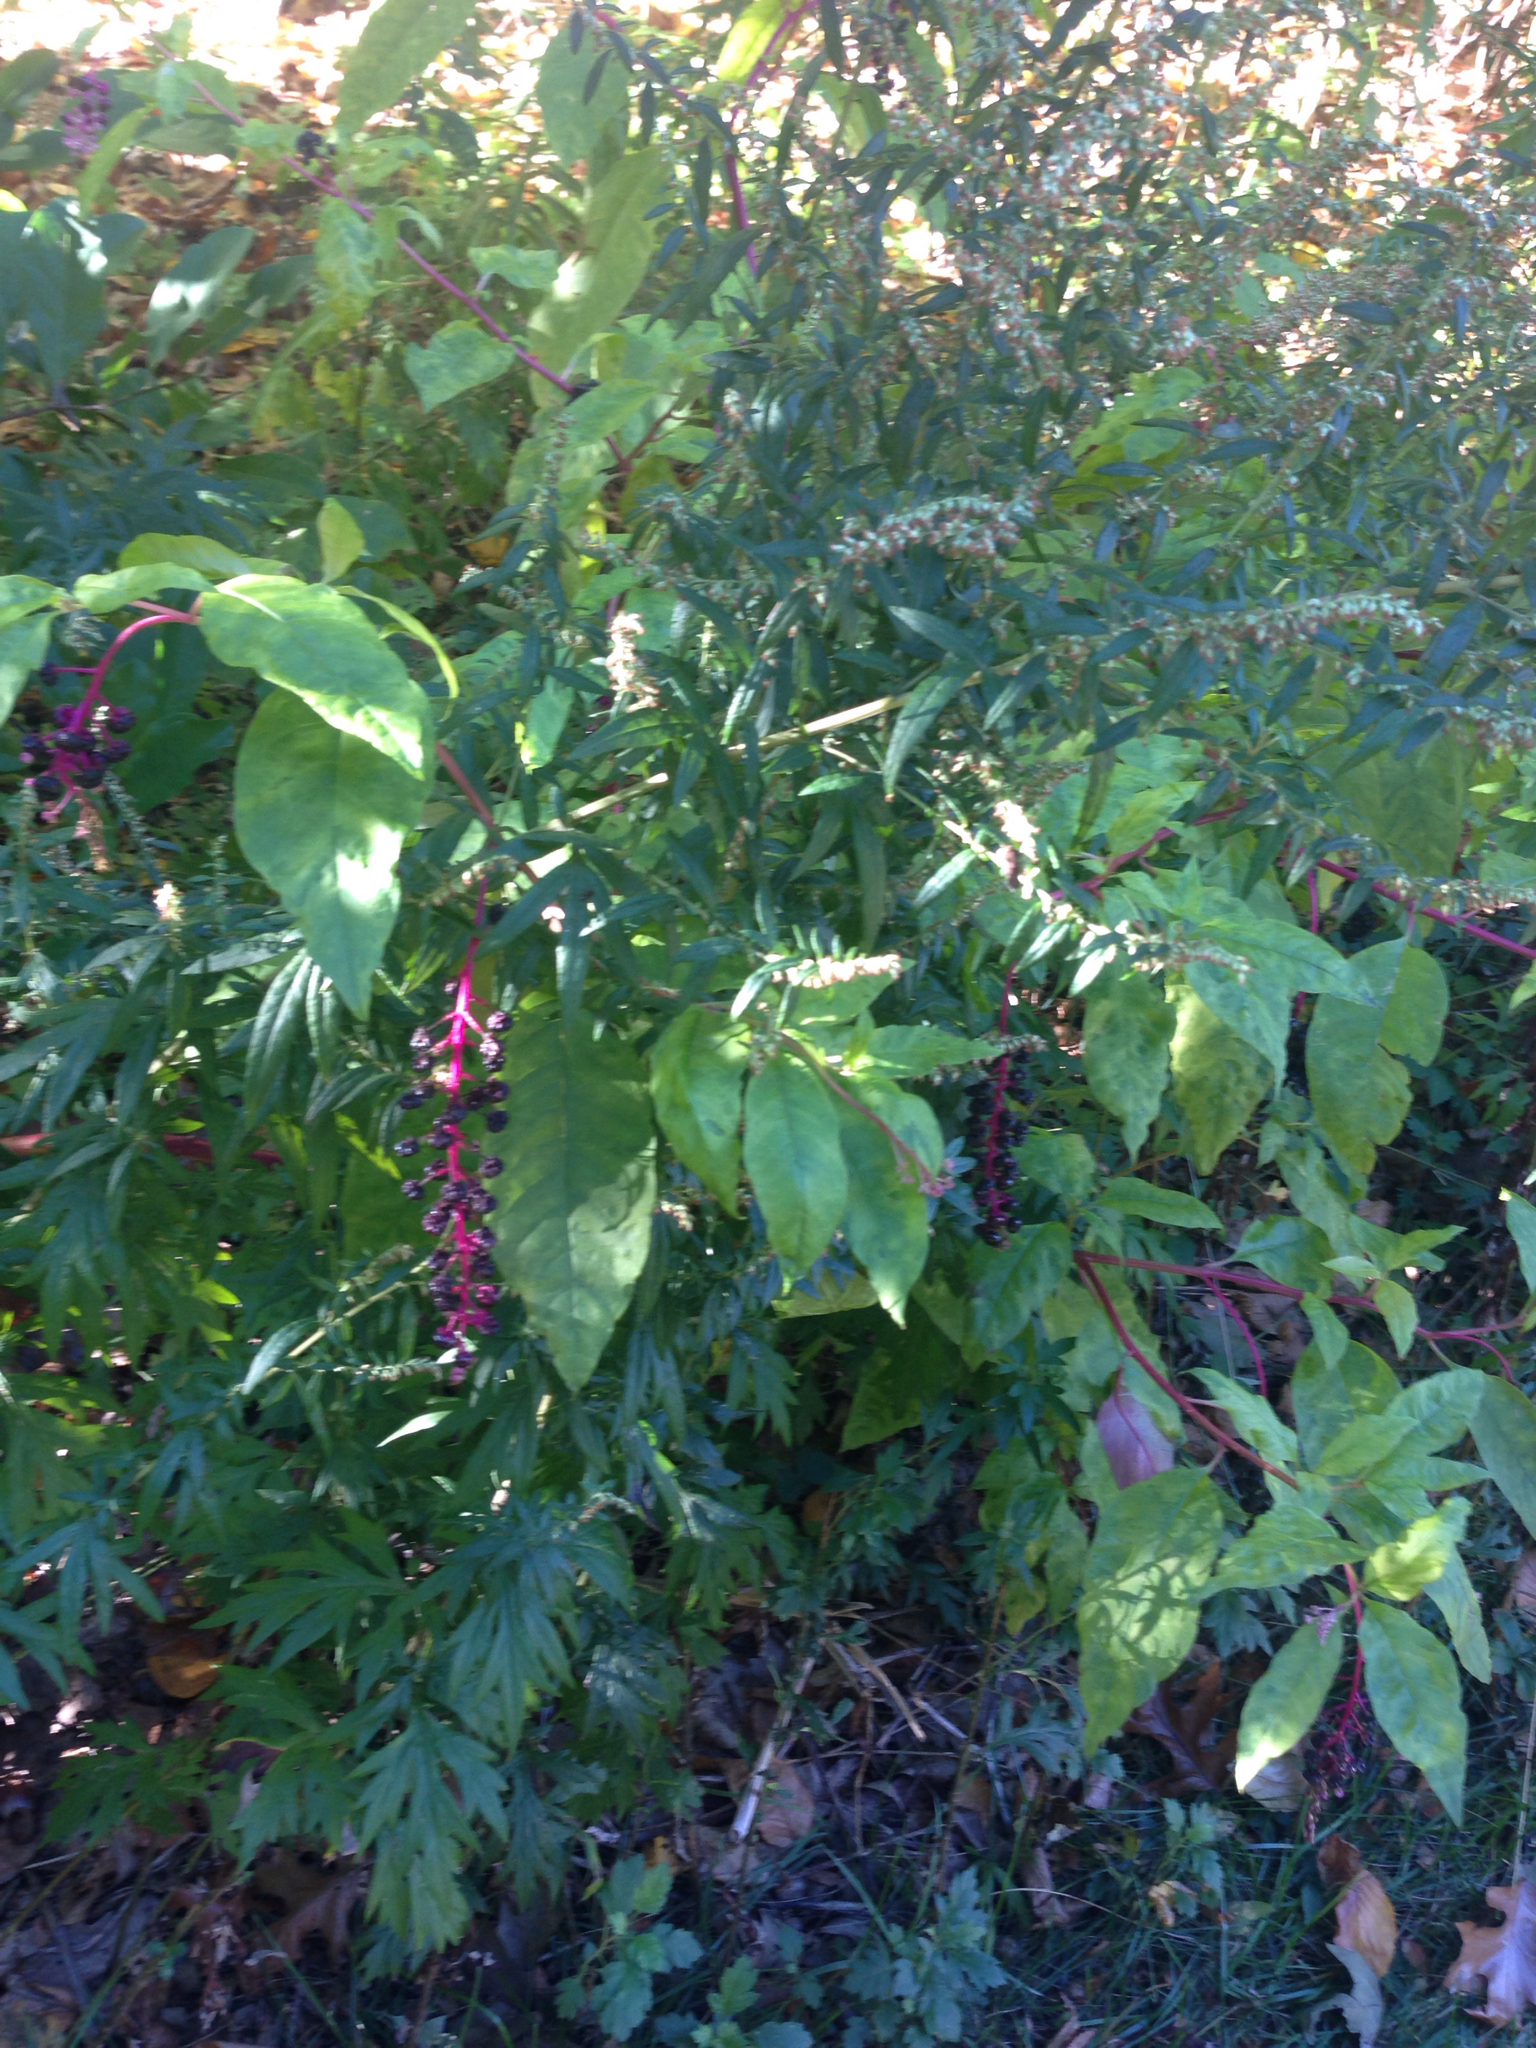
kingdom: Plantae
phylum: Tracheophyta
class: Magnoliopsida
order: Caryophyllales
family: Phytolaccaceae
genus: Phytolacca
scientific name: Phytolacca americana
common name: American pokeweed
